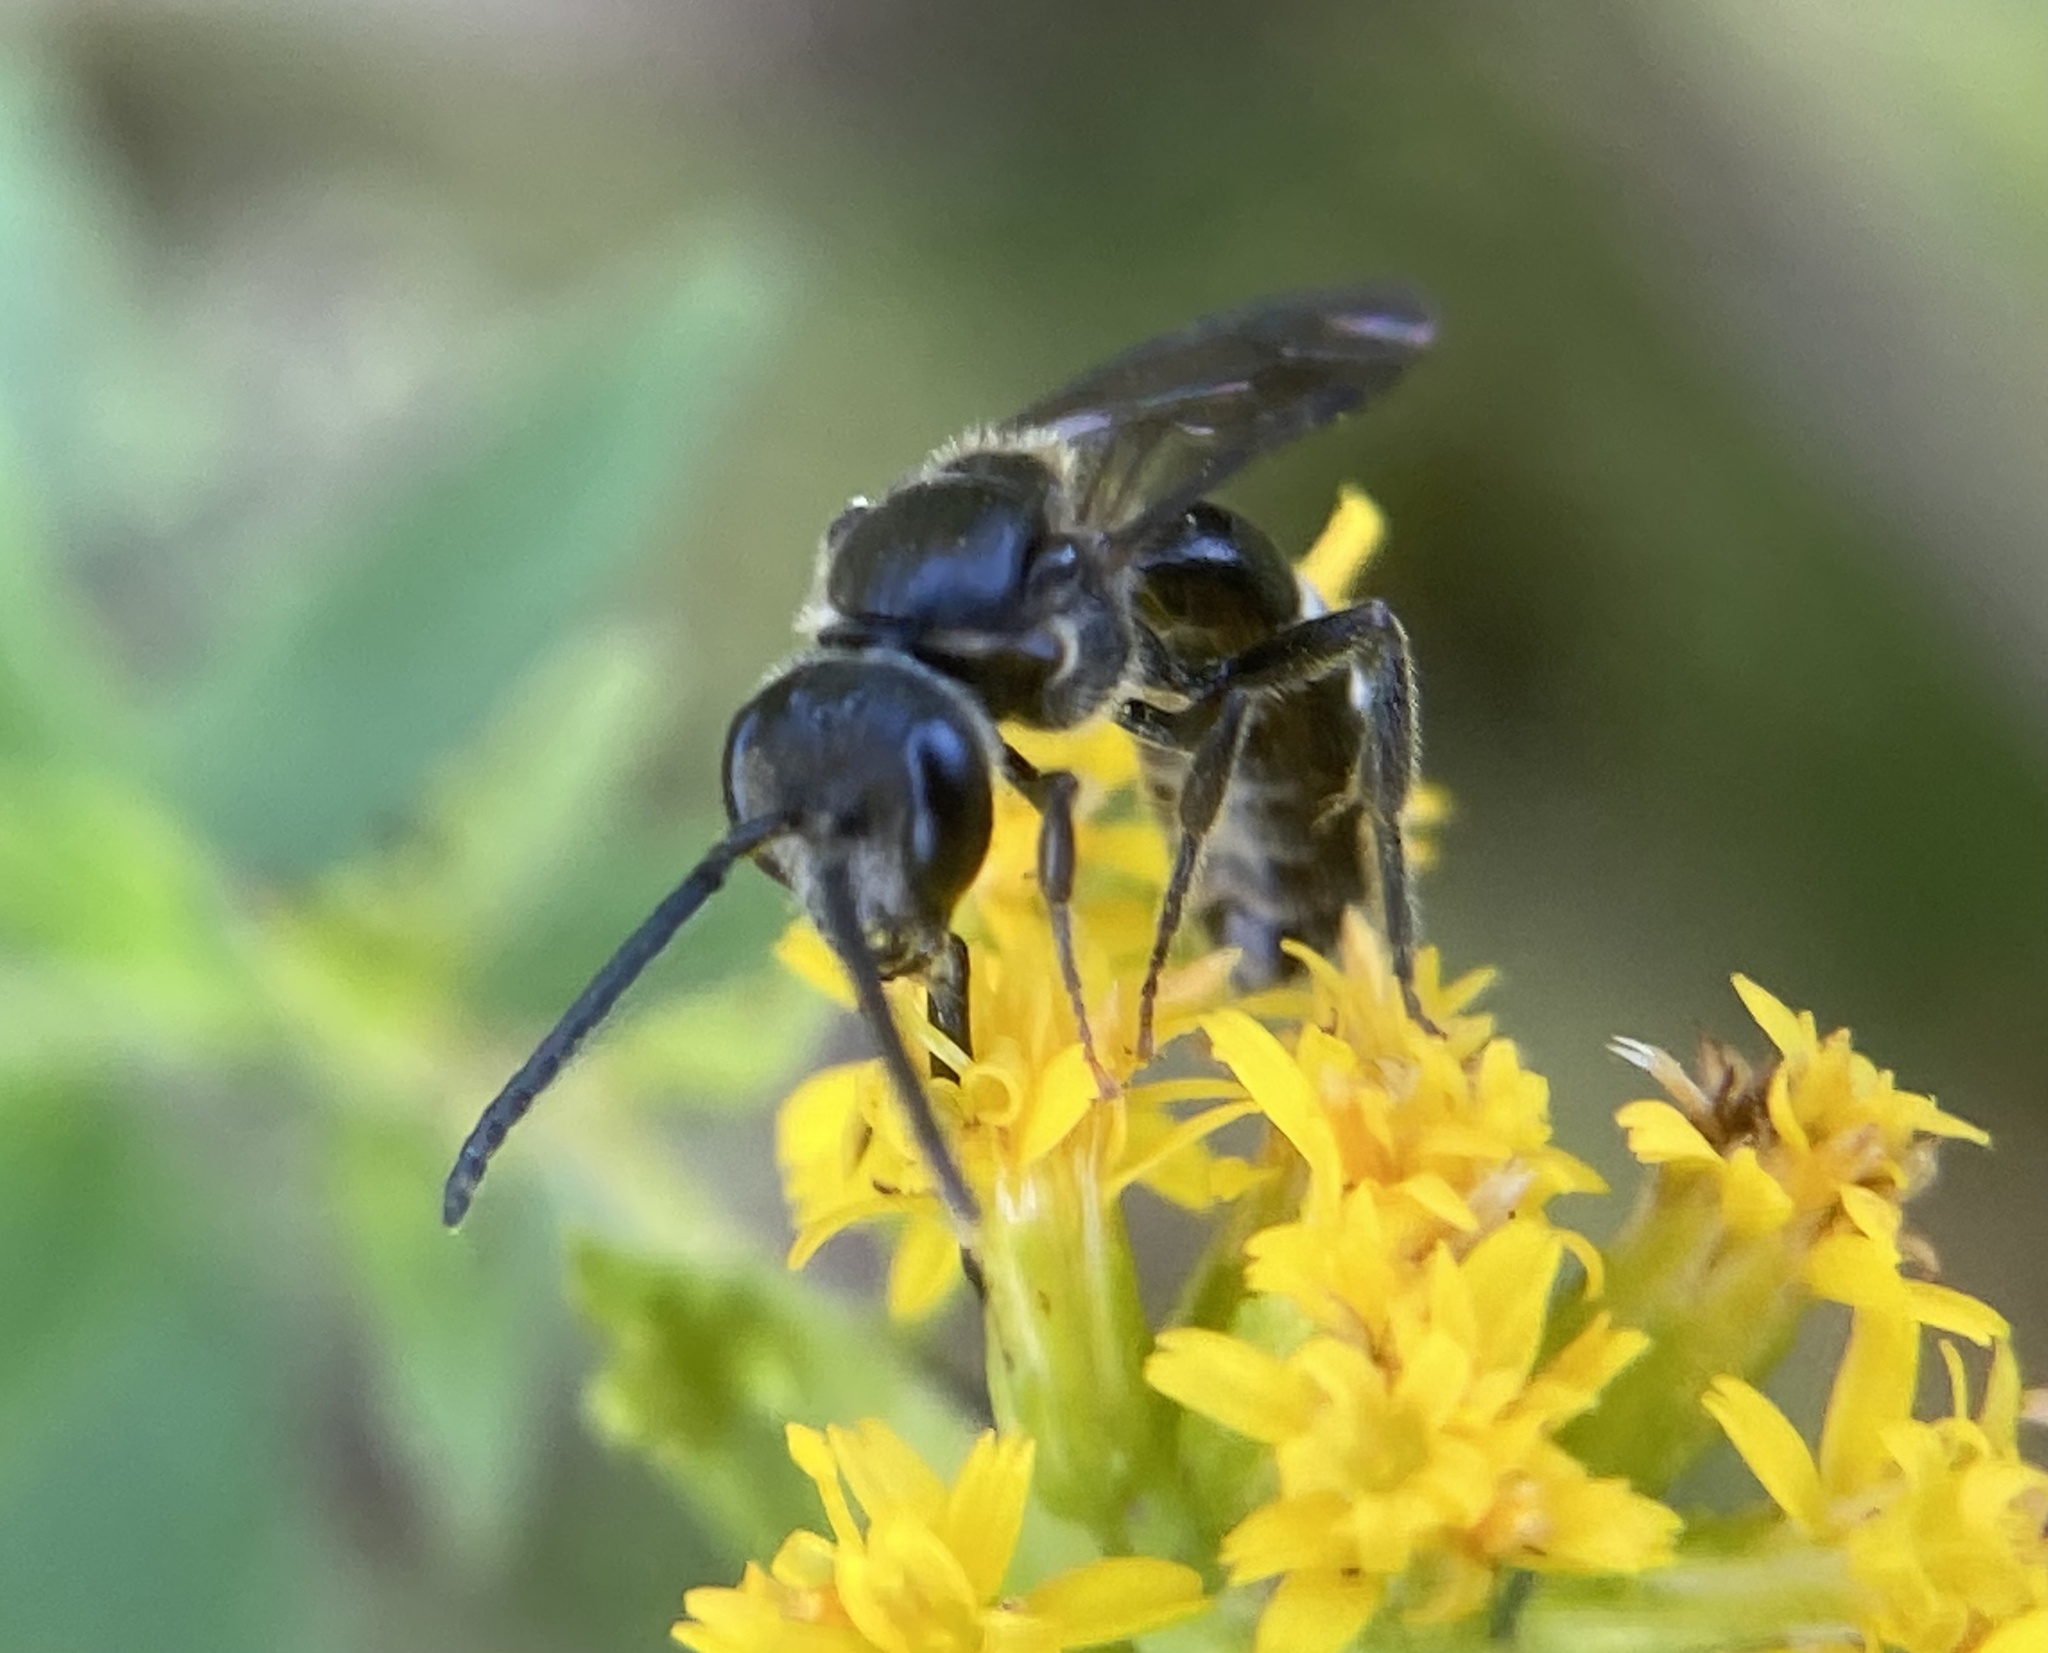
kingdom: Animalia
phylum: Arthropoda
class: Insecta
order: Hymenoptera
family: Halictidae
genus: Lasioglossum
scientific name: Lasioglossum fuscipenne
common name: Brown-winged sweat bee
